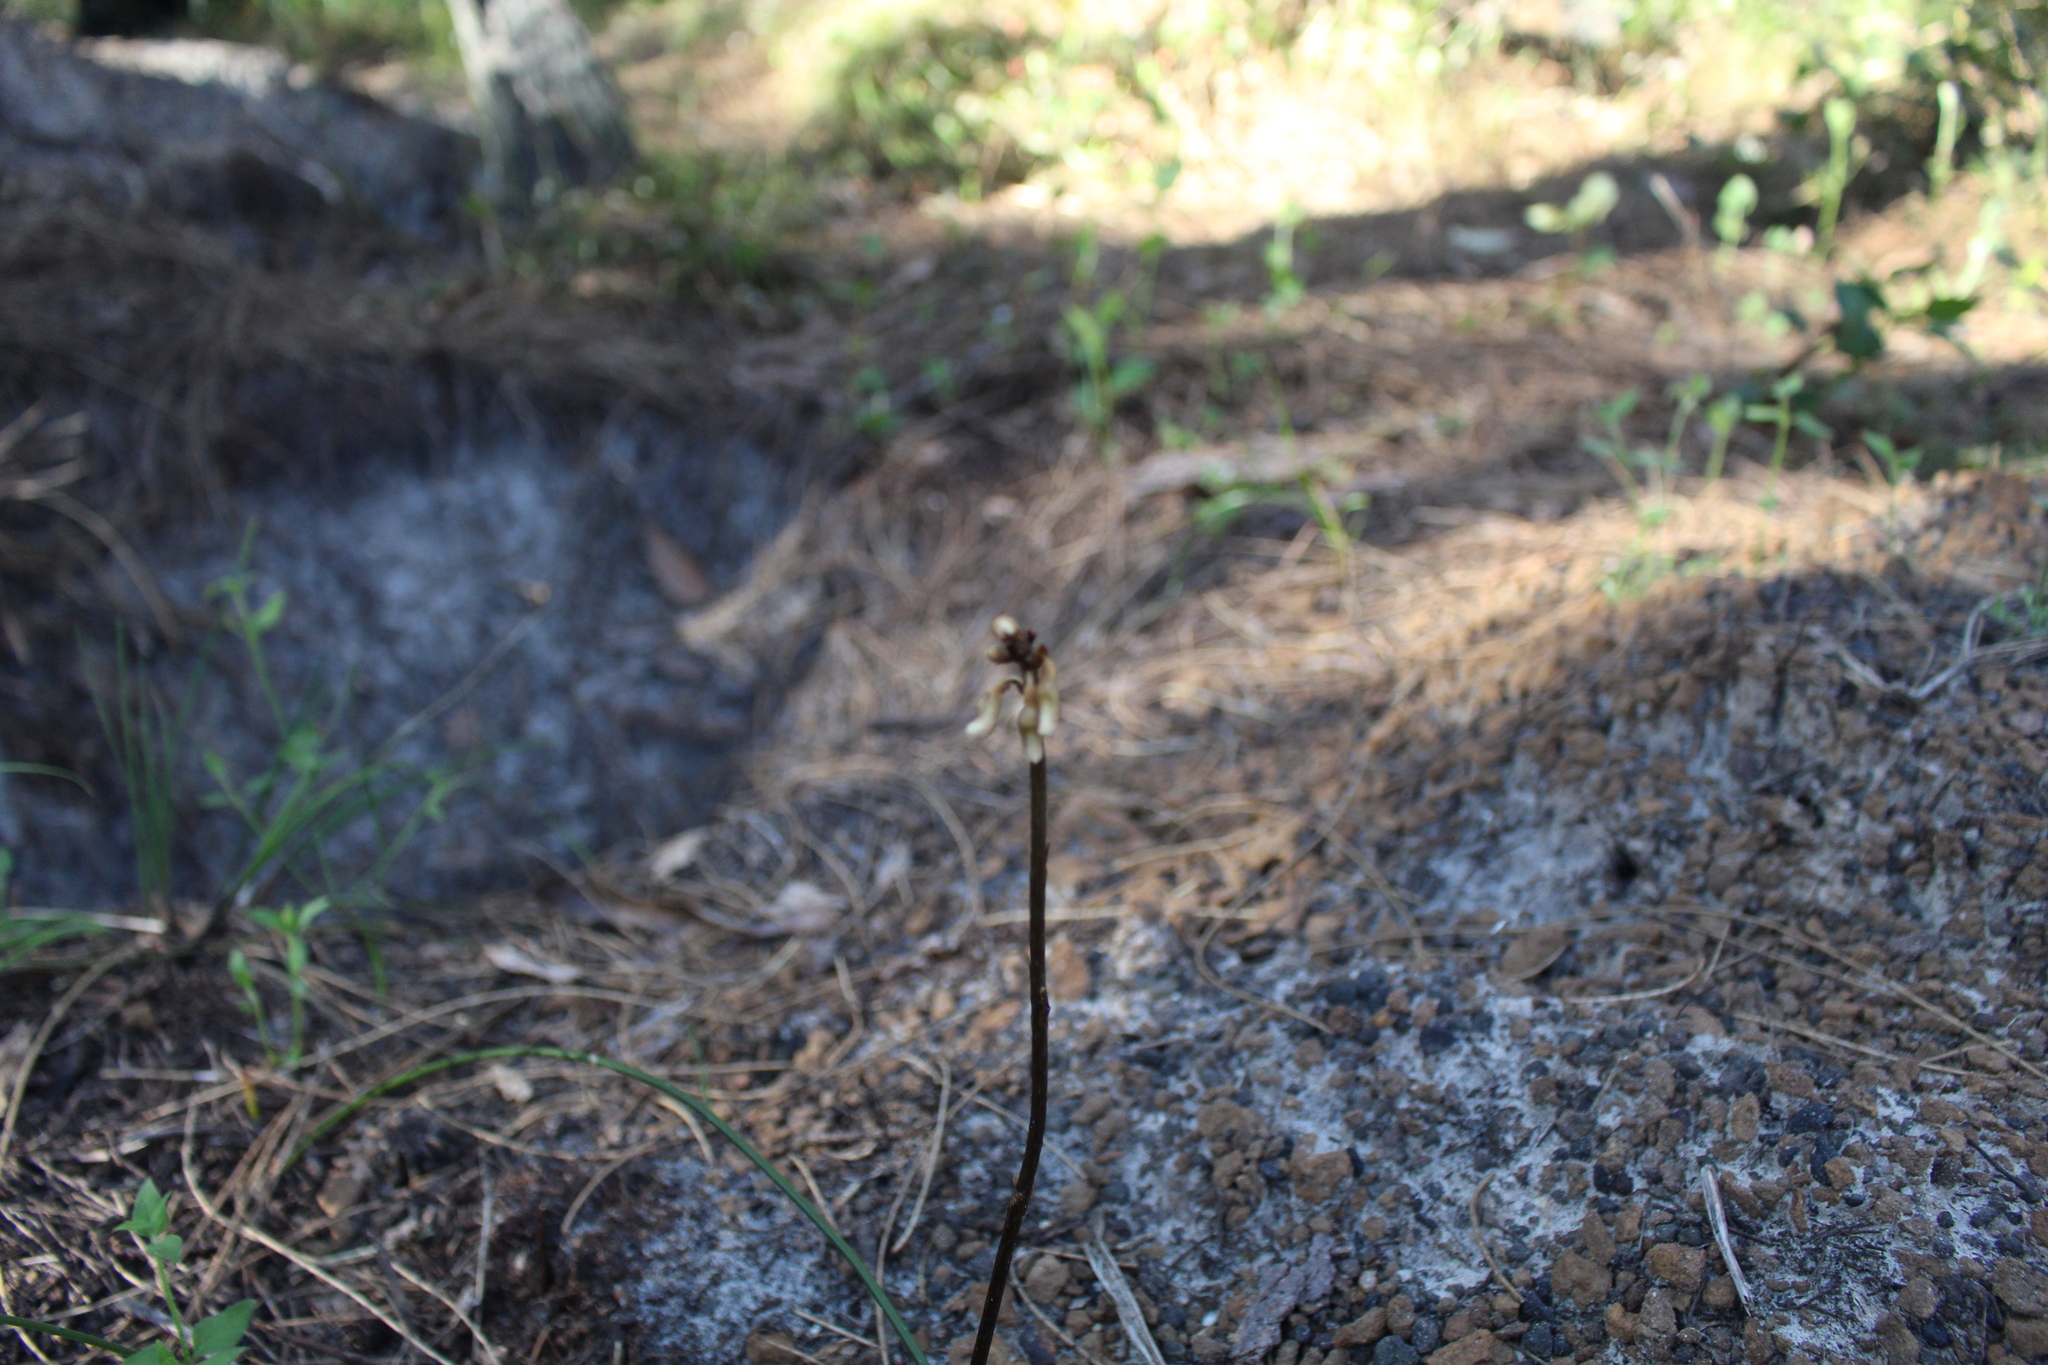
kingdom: Plantae
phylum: Tracheophyta
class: Liliopsida
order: Asparagales
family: Orchidaceae
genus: Gastrodia
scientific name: Gastrodia lacista
